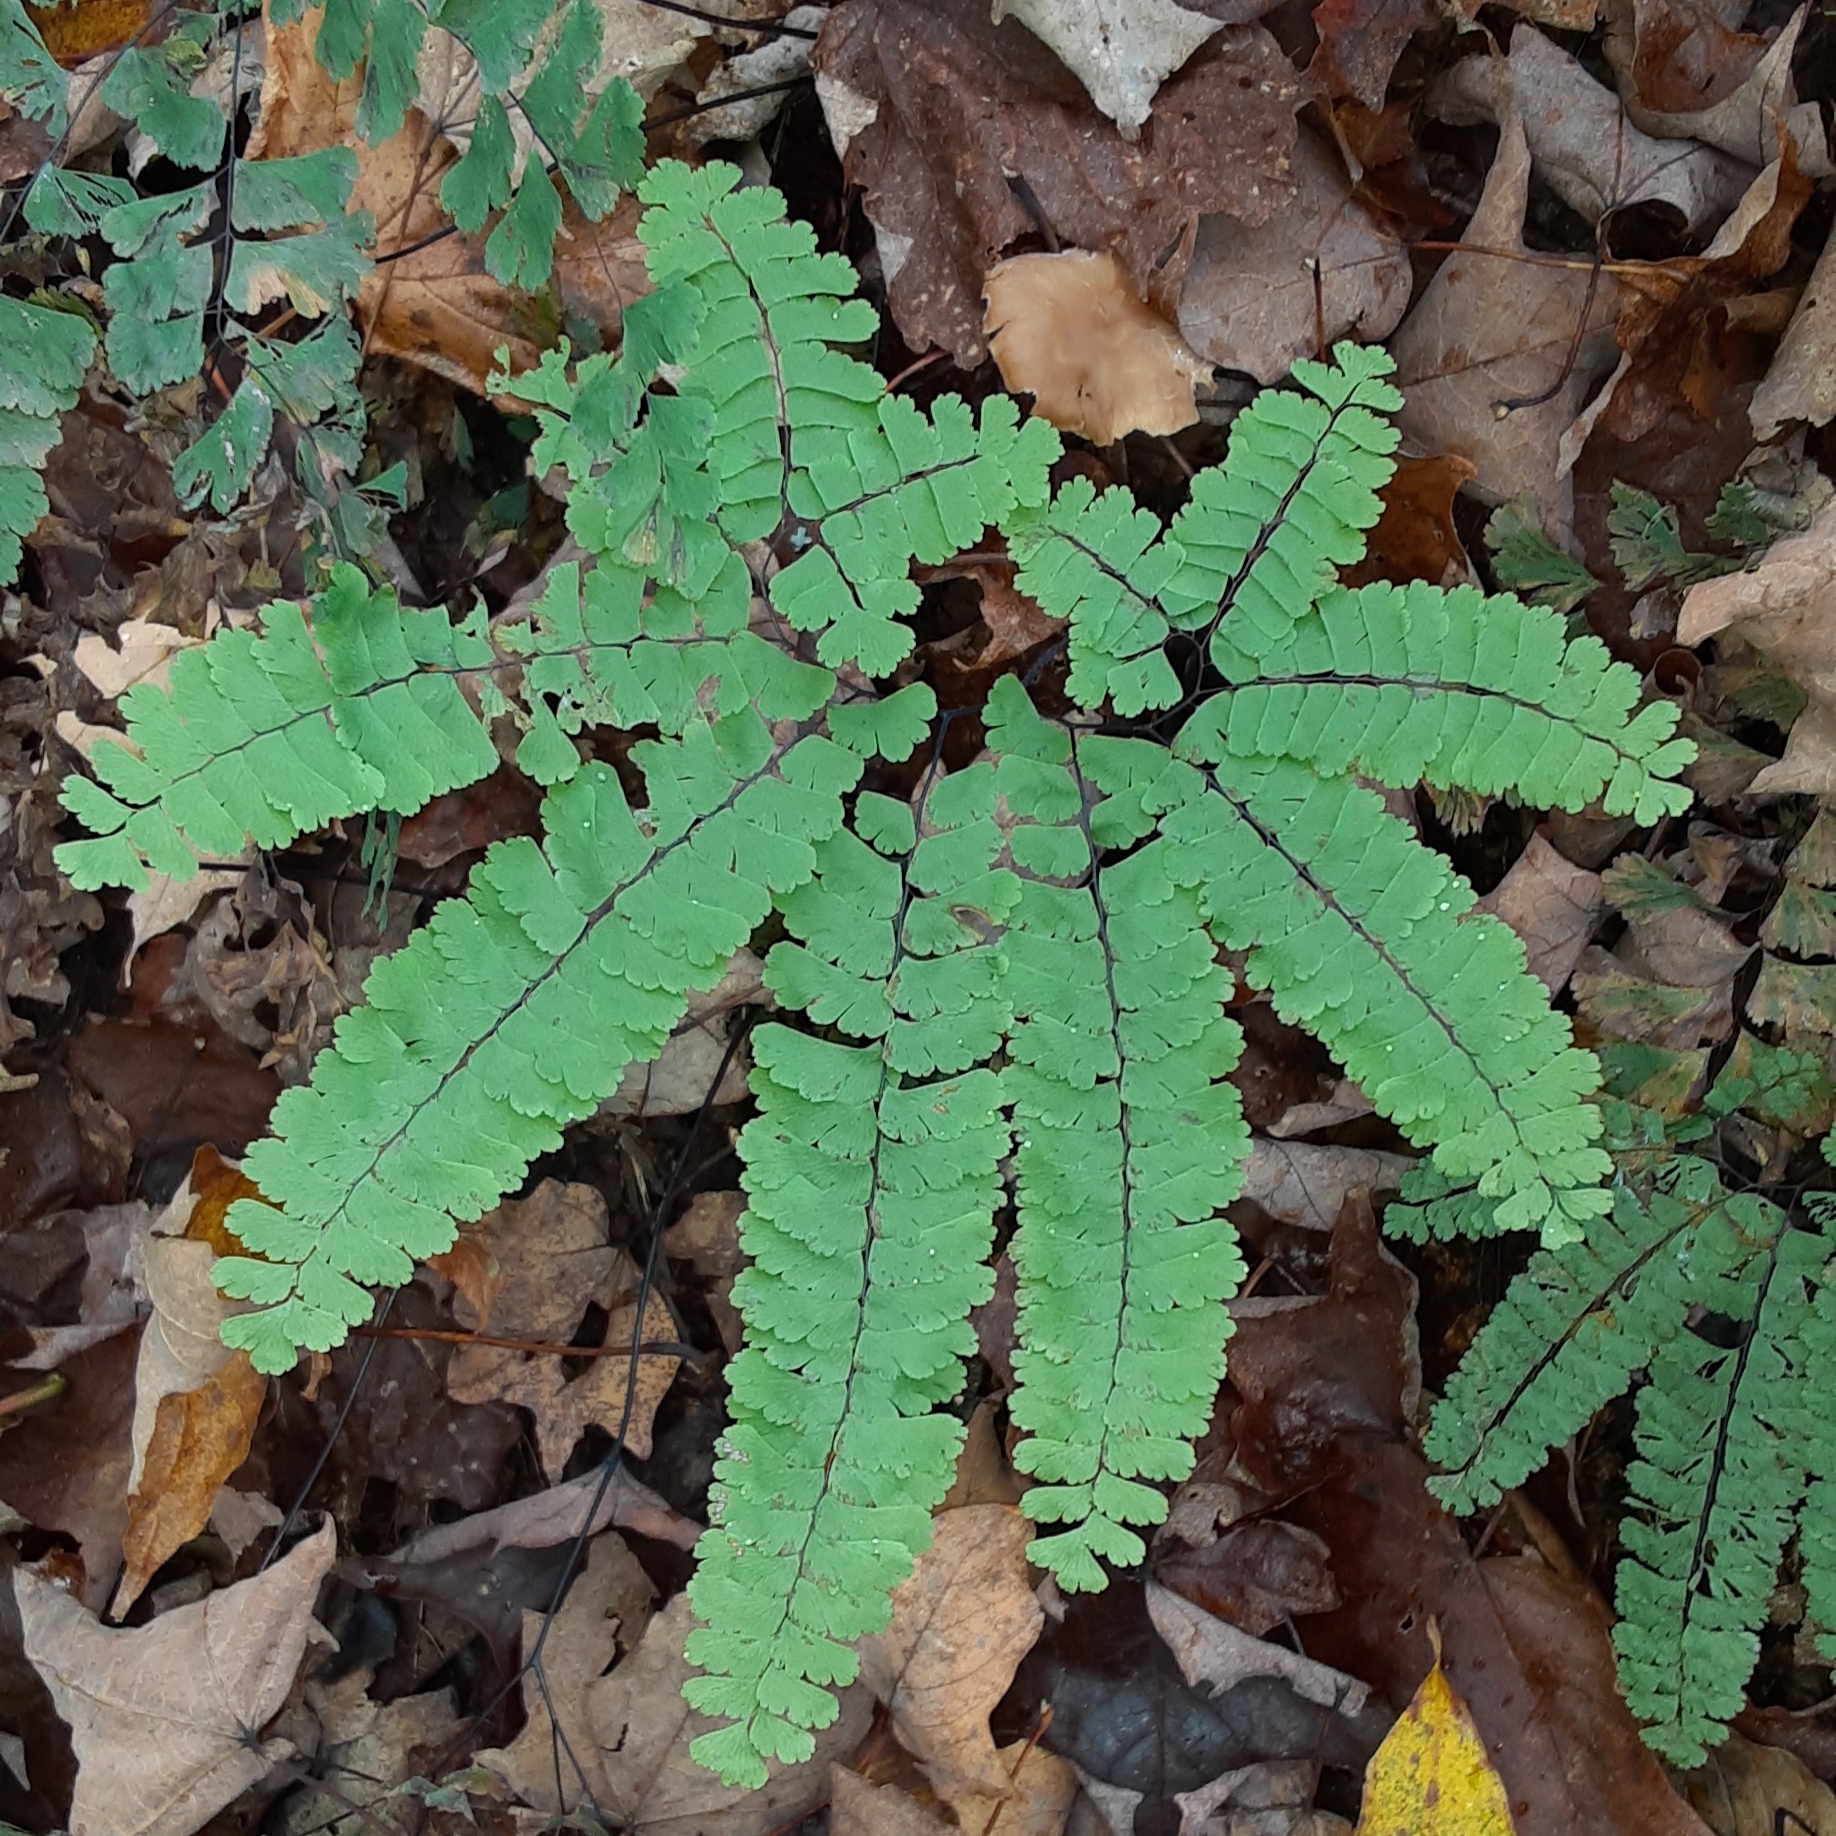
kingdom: Plantae
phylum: Tracheophyta
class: Polypodiopsida
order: Polypodiales
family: Pteridaceae
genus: Adiantum
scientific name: Adiantum pedatum
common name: Five-finger fern
